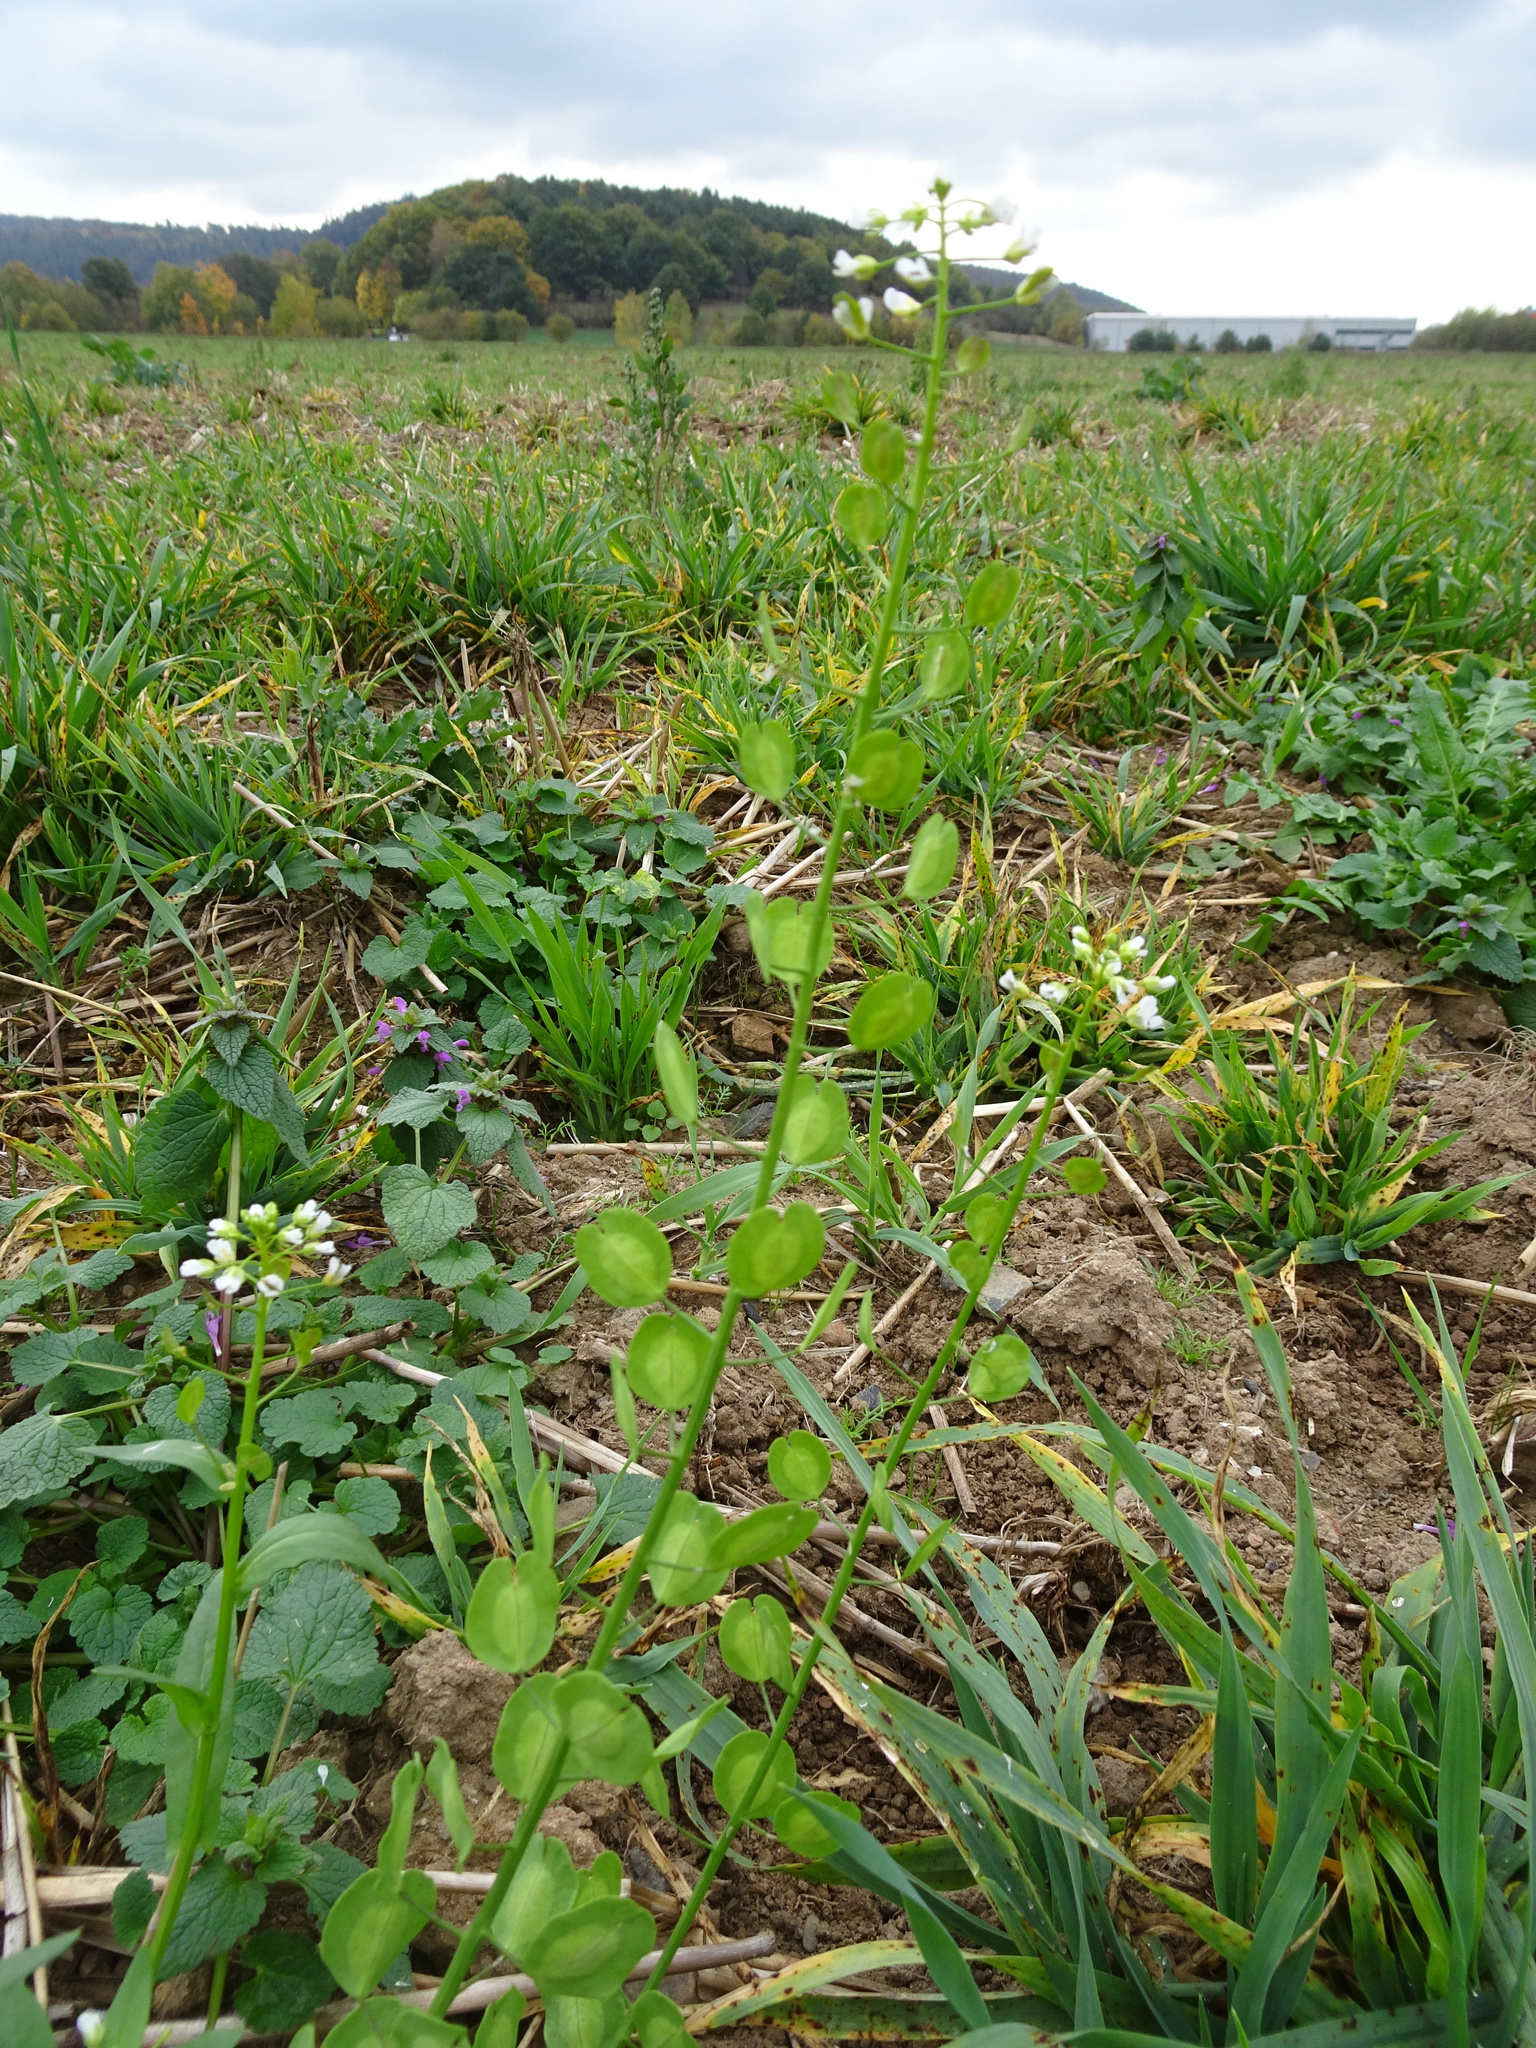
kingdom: Plantae
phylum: Tracheophyta
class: Magnoliopsida
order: Brassicales
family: Brassicaceae
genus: Thlaspi
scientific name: Thlaspi arvense
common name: Field pennycress
